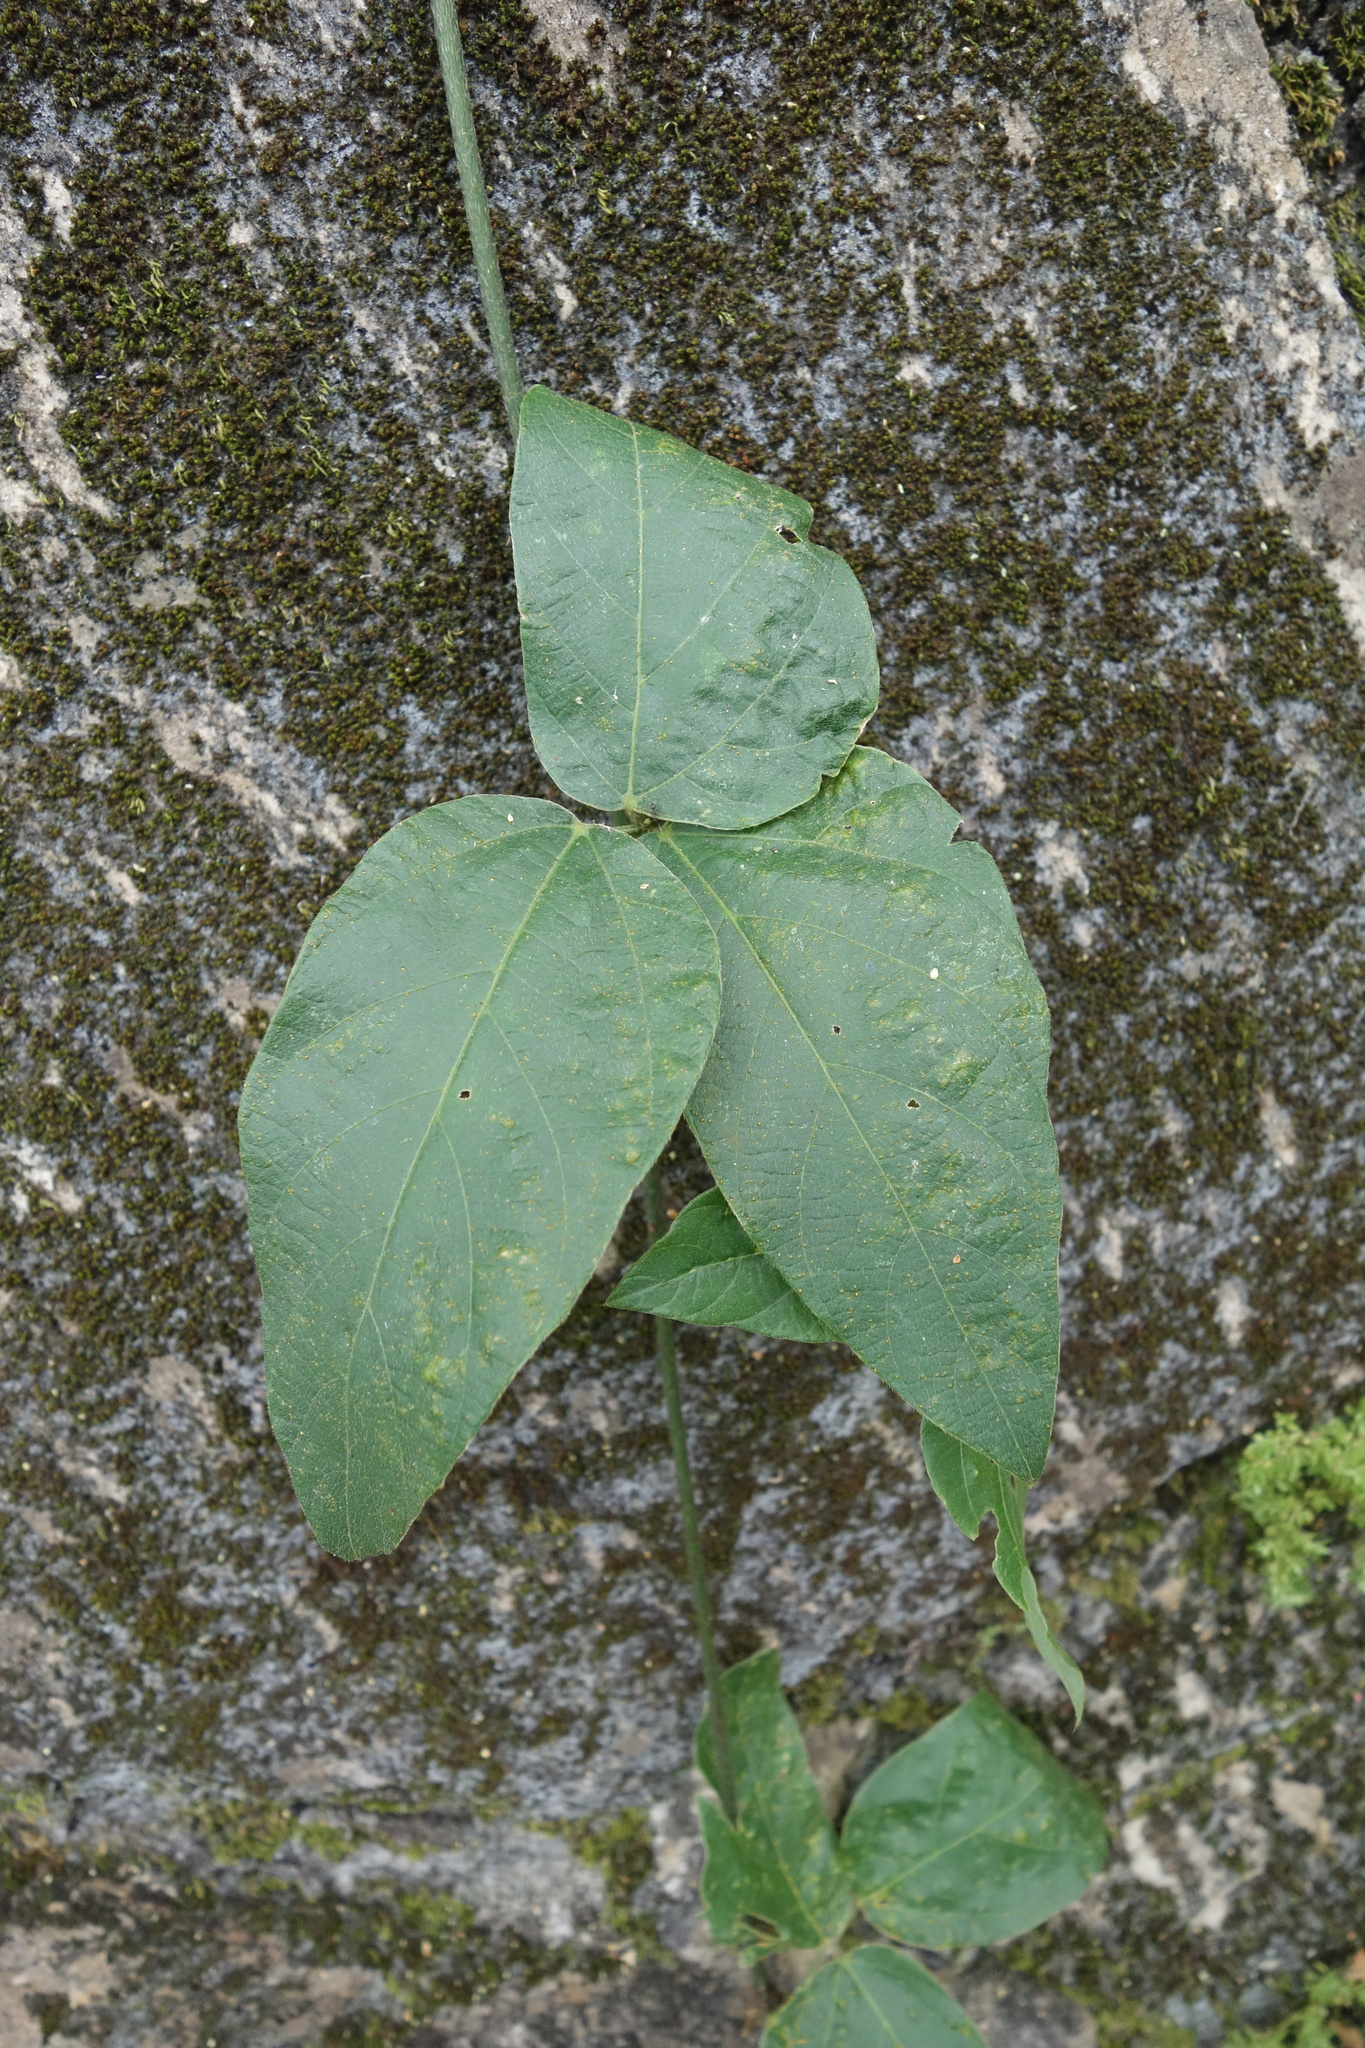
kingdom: Plantae
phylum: Tracheophyta
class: Magnoliopsida
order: Fabales
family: Fabaceae
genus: Pueraria
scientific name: Pueraria montana
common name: Kudzu
